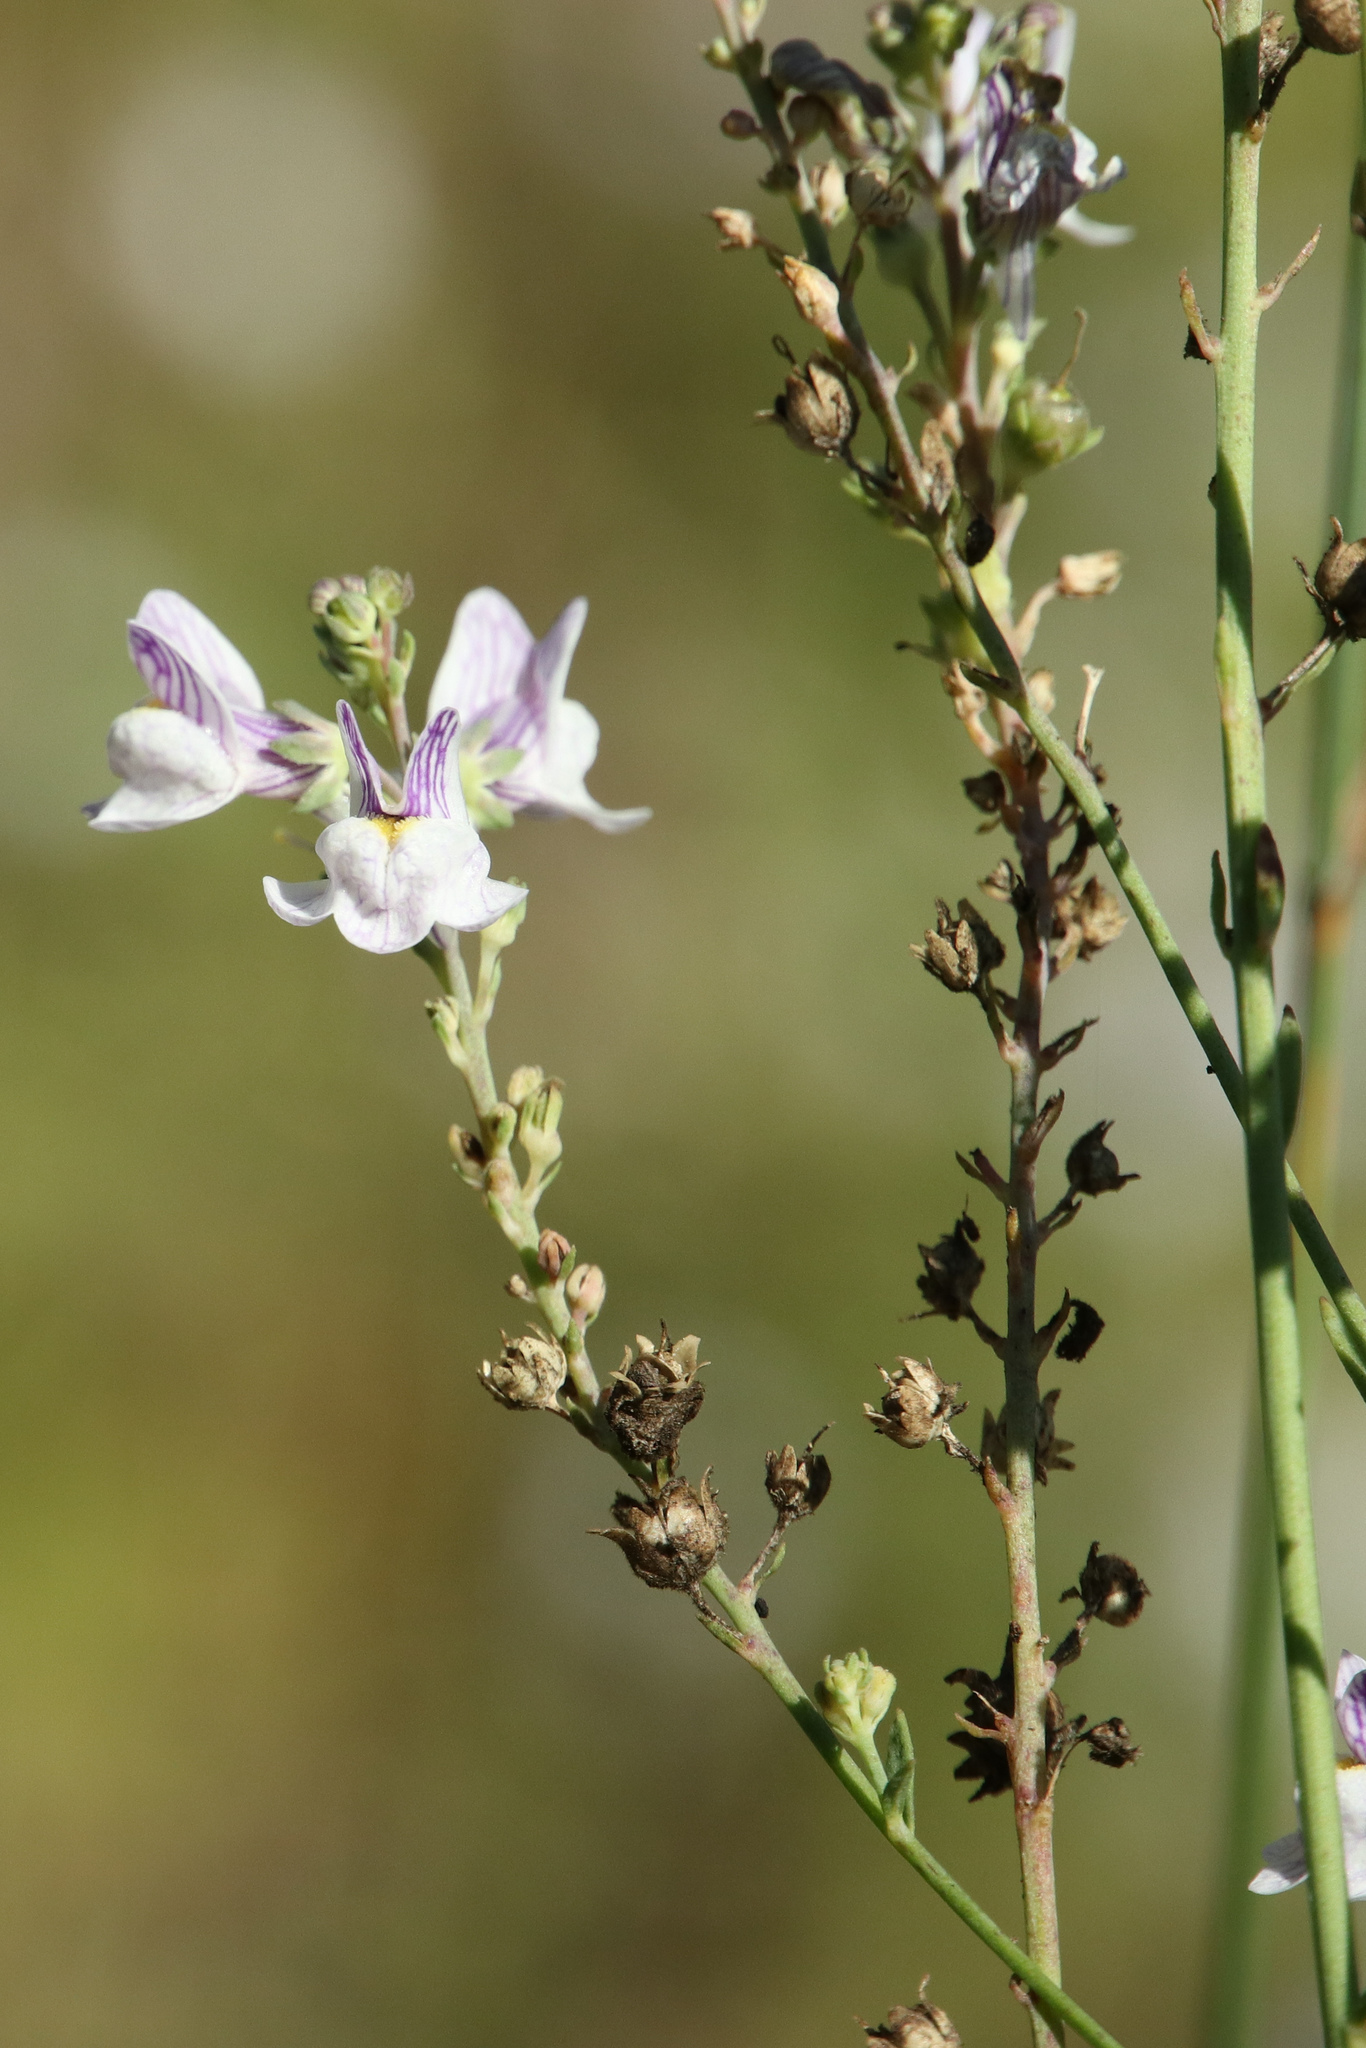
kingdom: Plantae
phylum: Tracheophyta
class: Magnoliopsida
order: Lamiales
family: Plantaginaceae
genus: Linaria
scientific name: Linaria repens
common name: Pale toadflax
